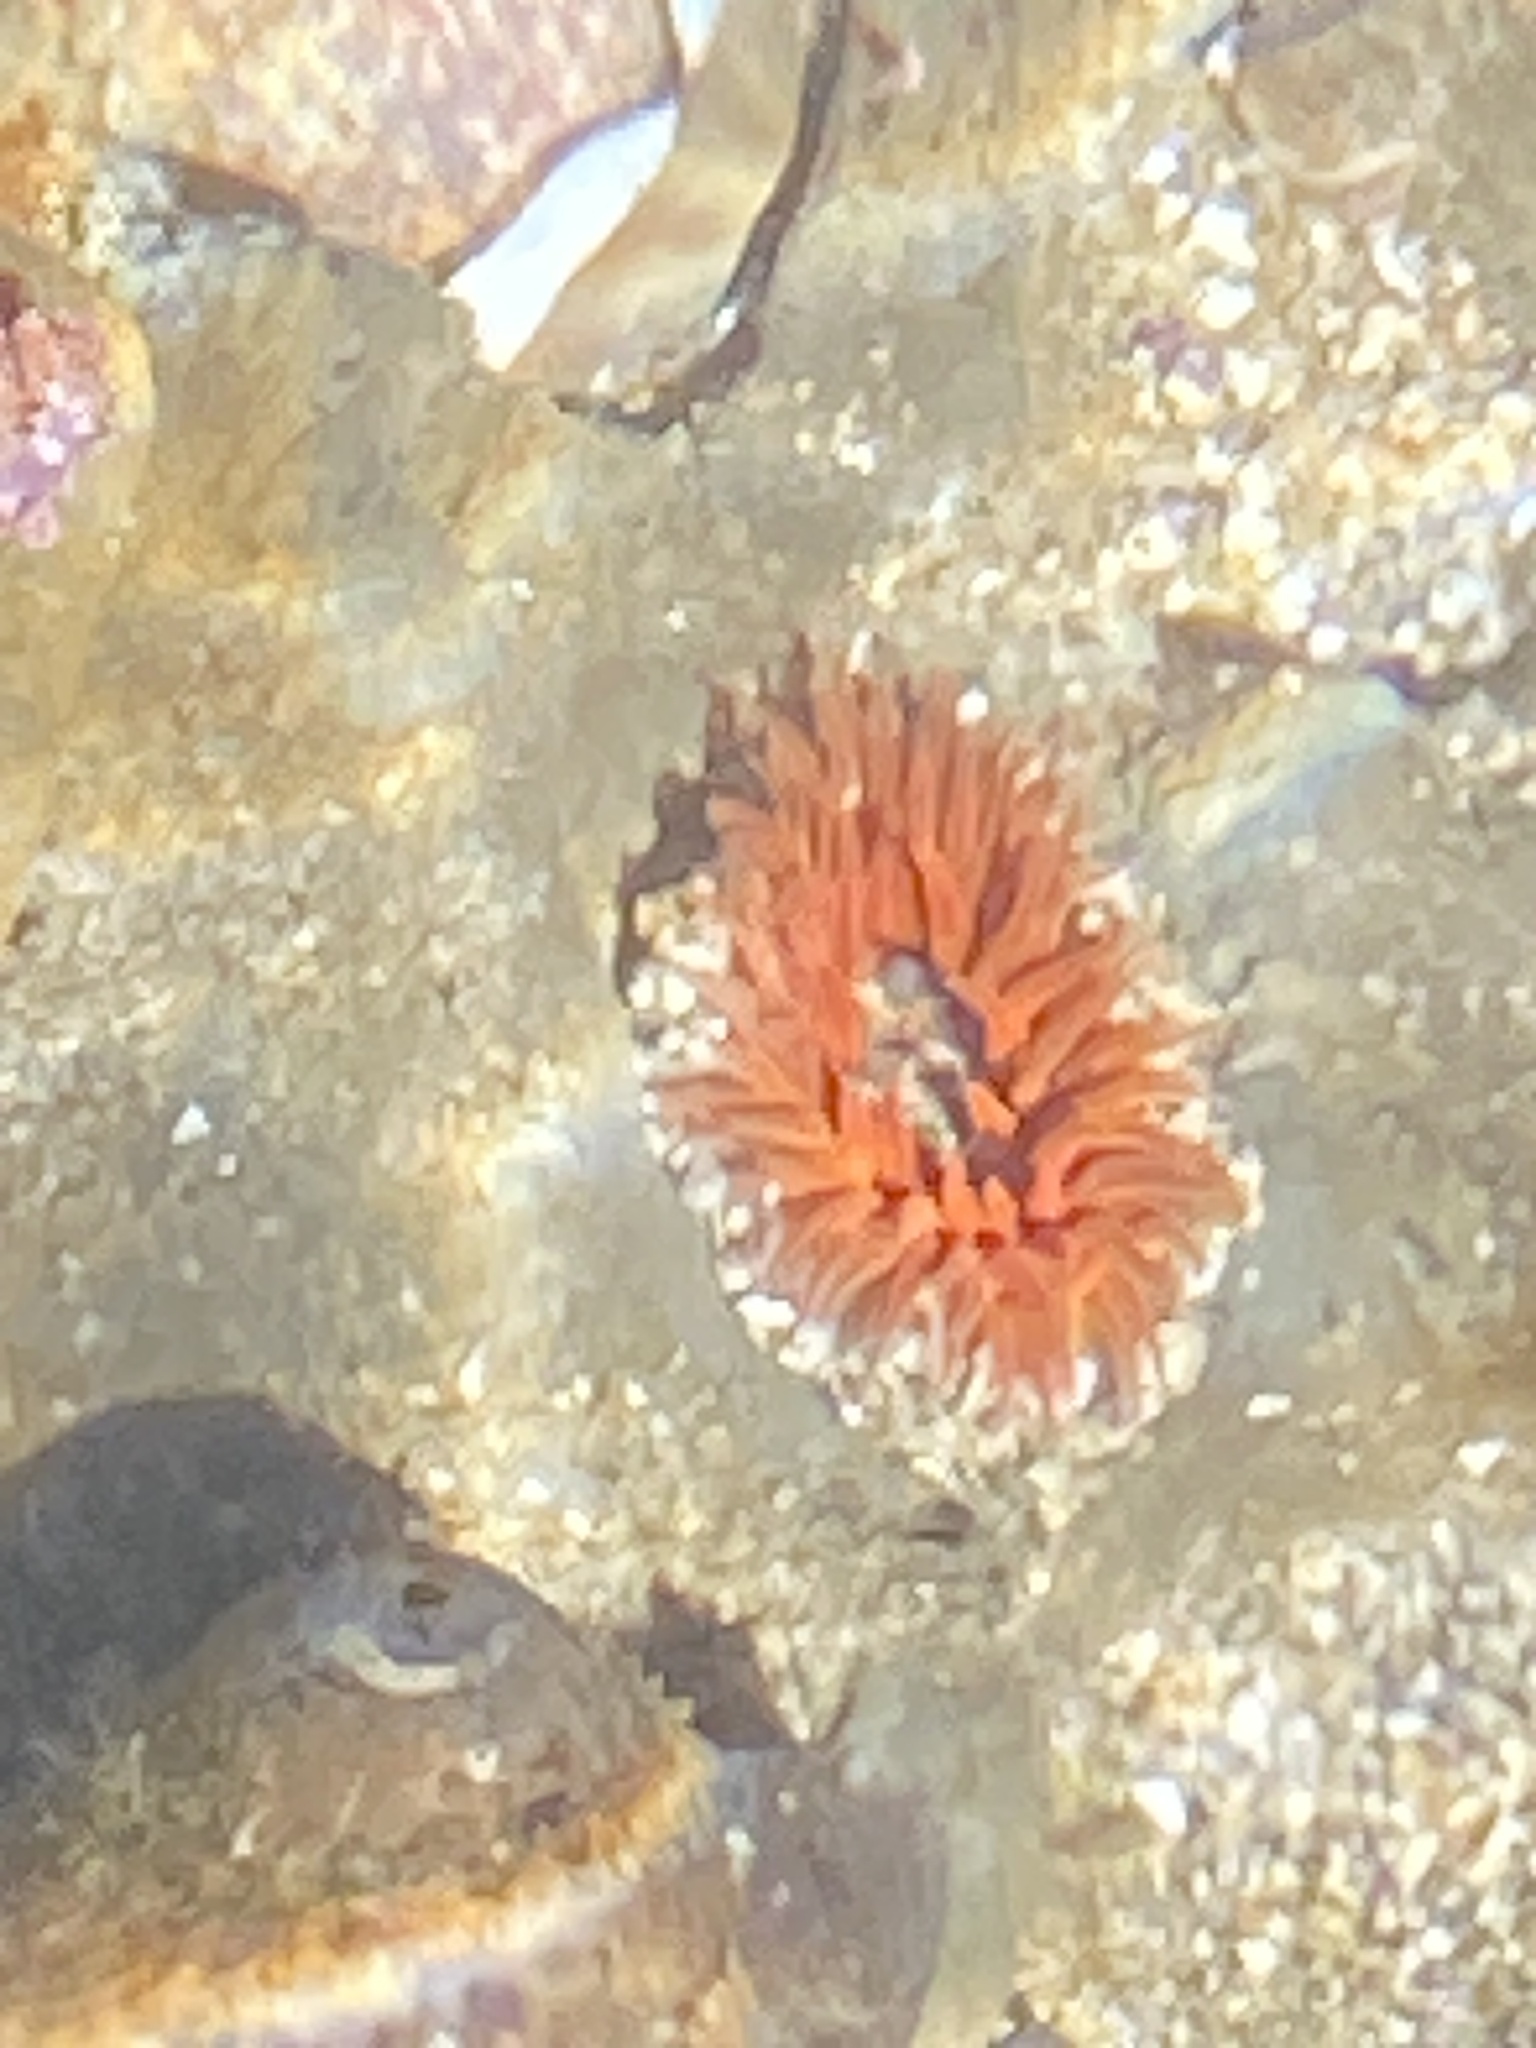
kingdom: Animalia
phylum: Cnidaria
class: Anthozoa
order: Actiniaria
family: Actiniidae
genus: Anthopleura
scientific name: Anthopleura artemisia
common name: Buried sea anemone
